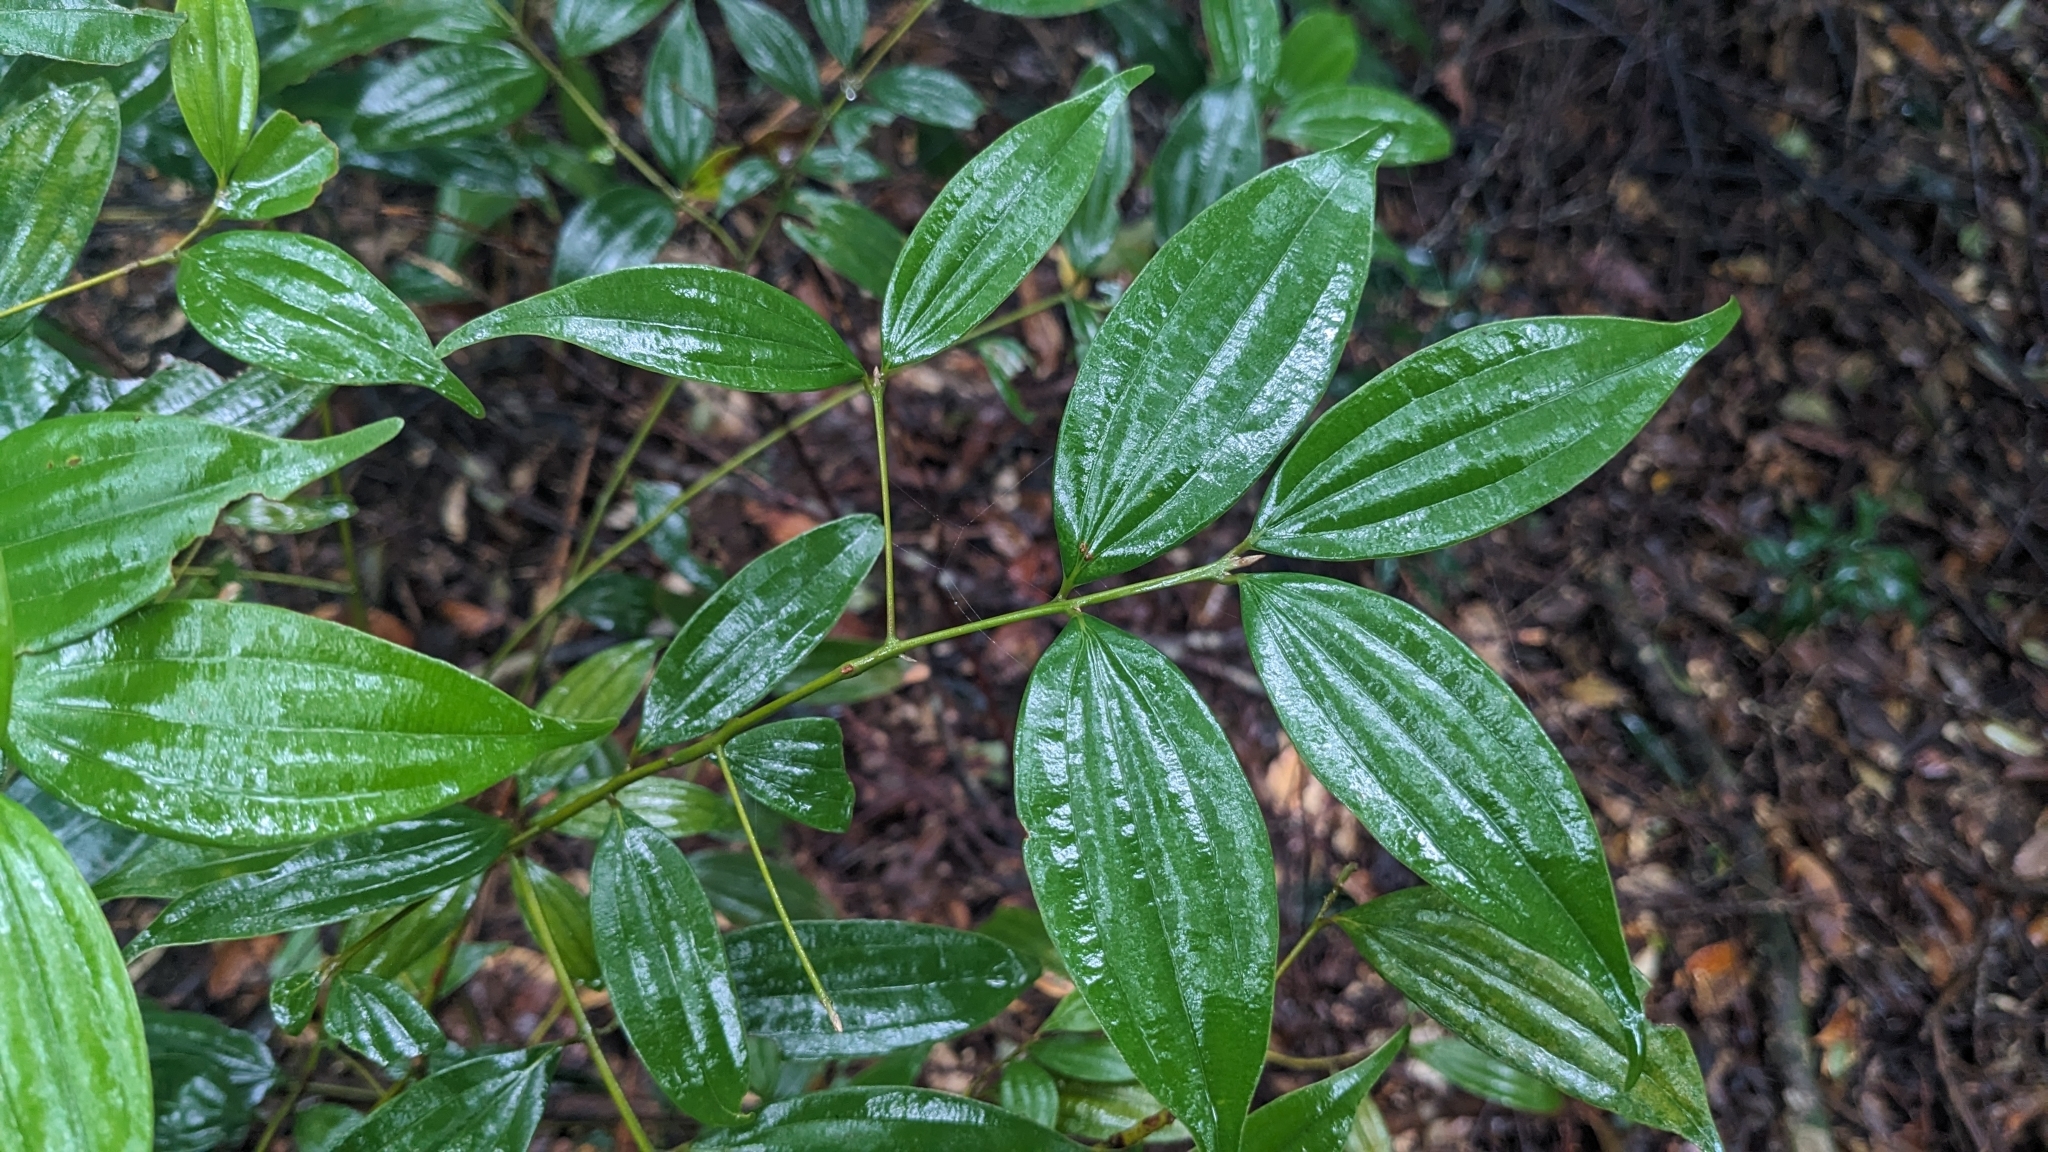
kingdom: Plantae
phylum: Tracheophyta
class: Magnoliopsida
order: Laurales
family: Lauraceae
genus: Cinnamomum
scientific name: Cinnamomum subavenium
